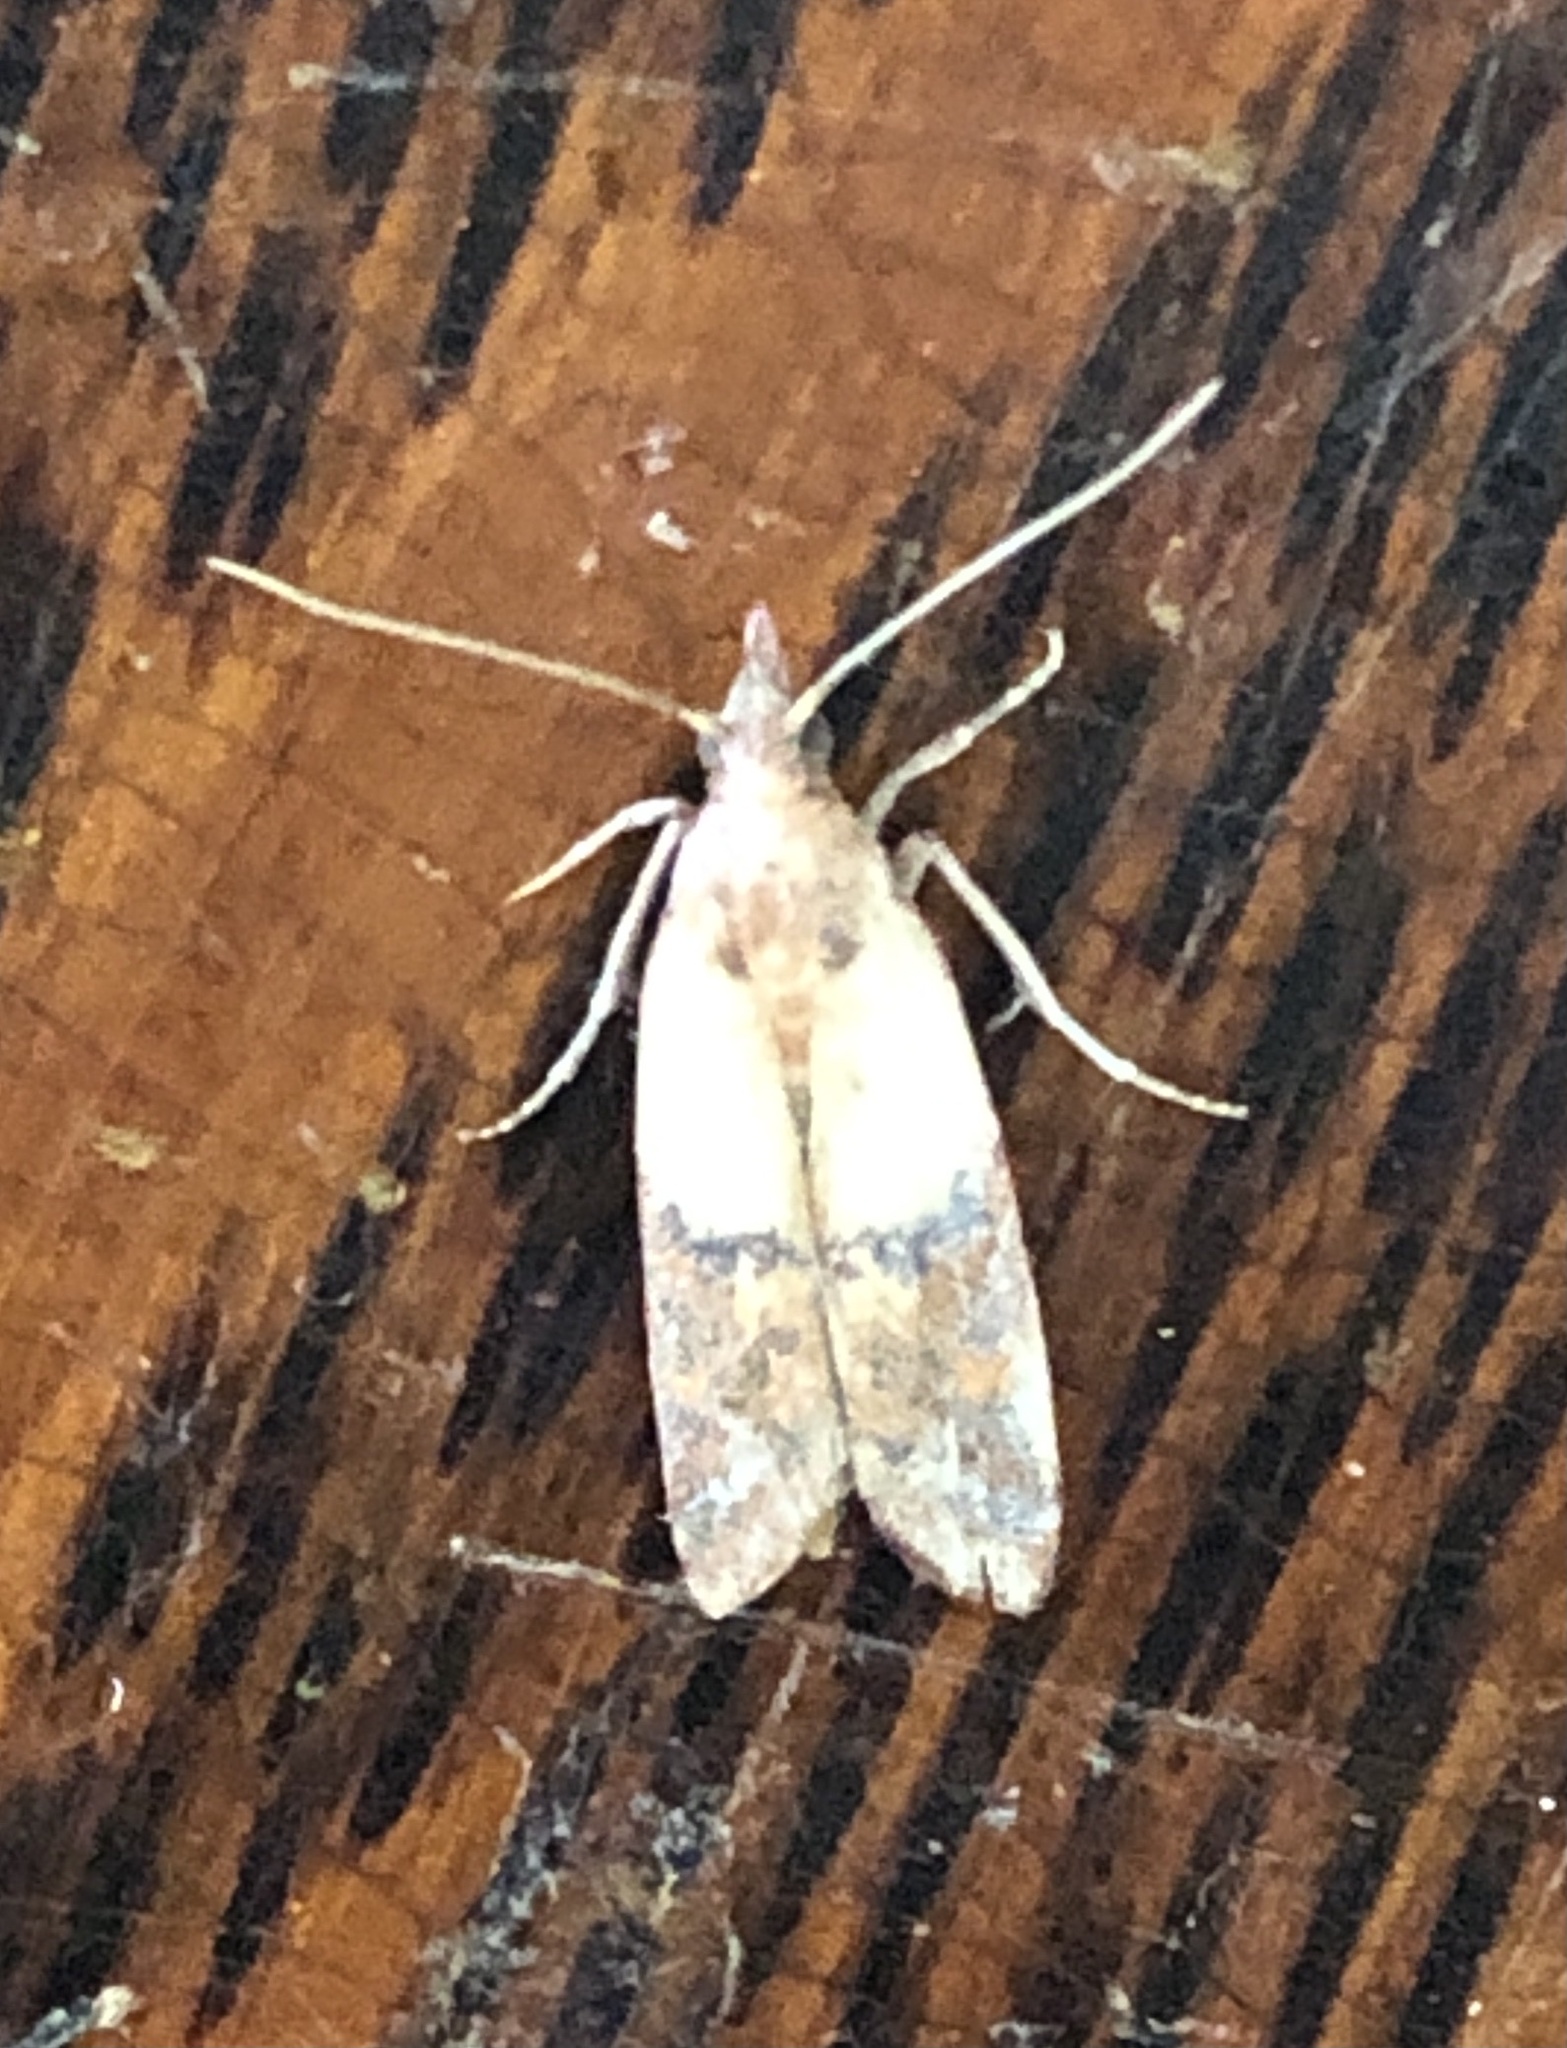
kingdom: Animalia
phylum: Arthropoda
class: Insecta
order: Lepidoptera
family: Pyralidae
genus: Plodia
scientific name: Plodia interpunctella
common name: Indian meal moth
